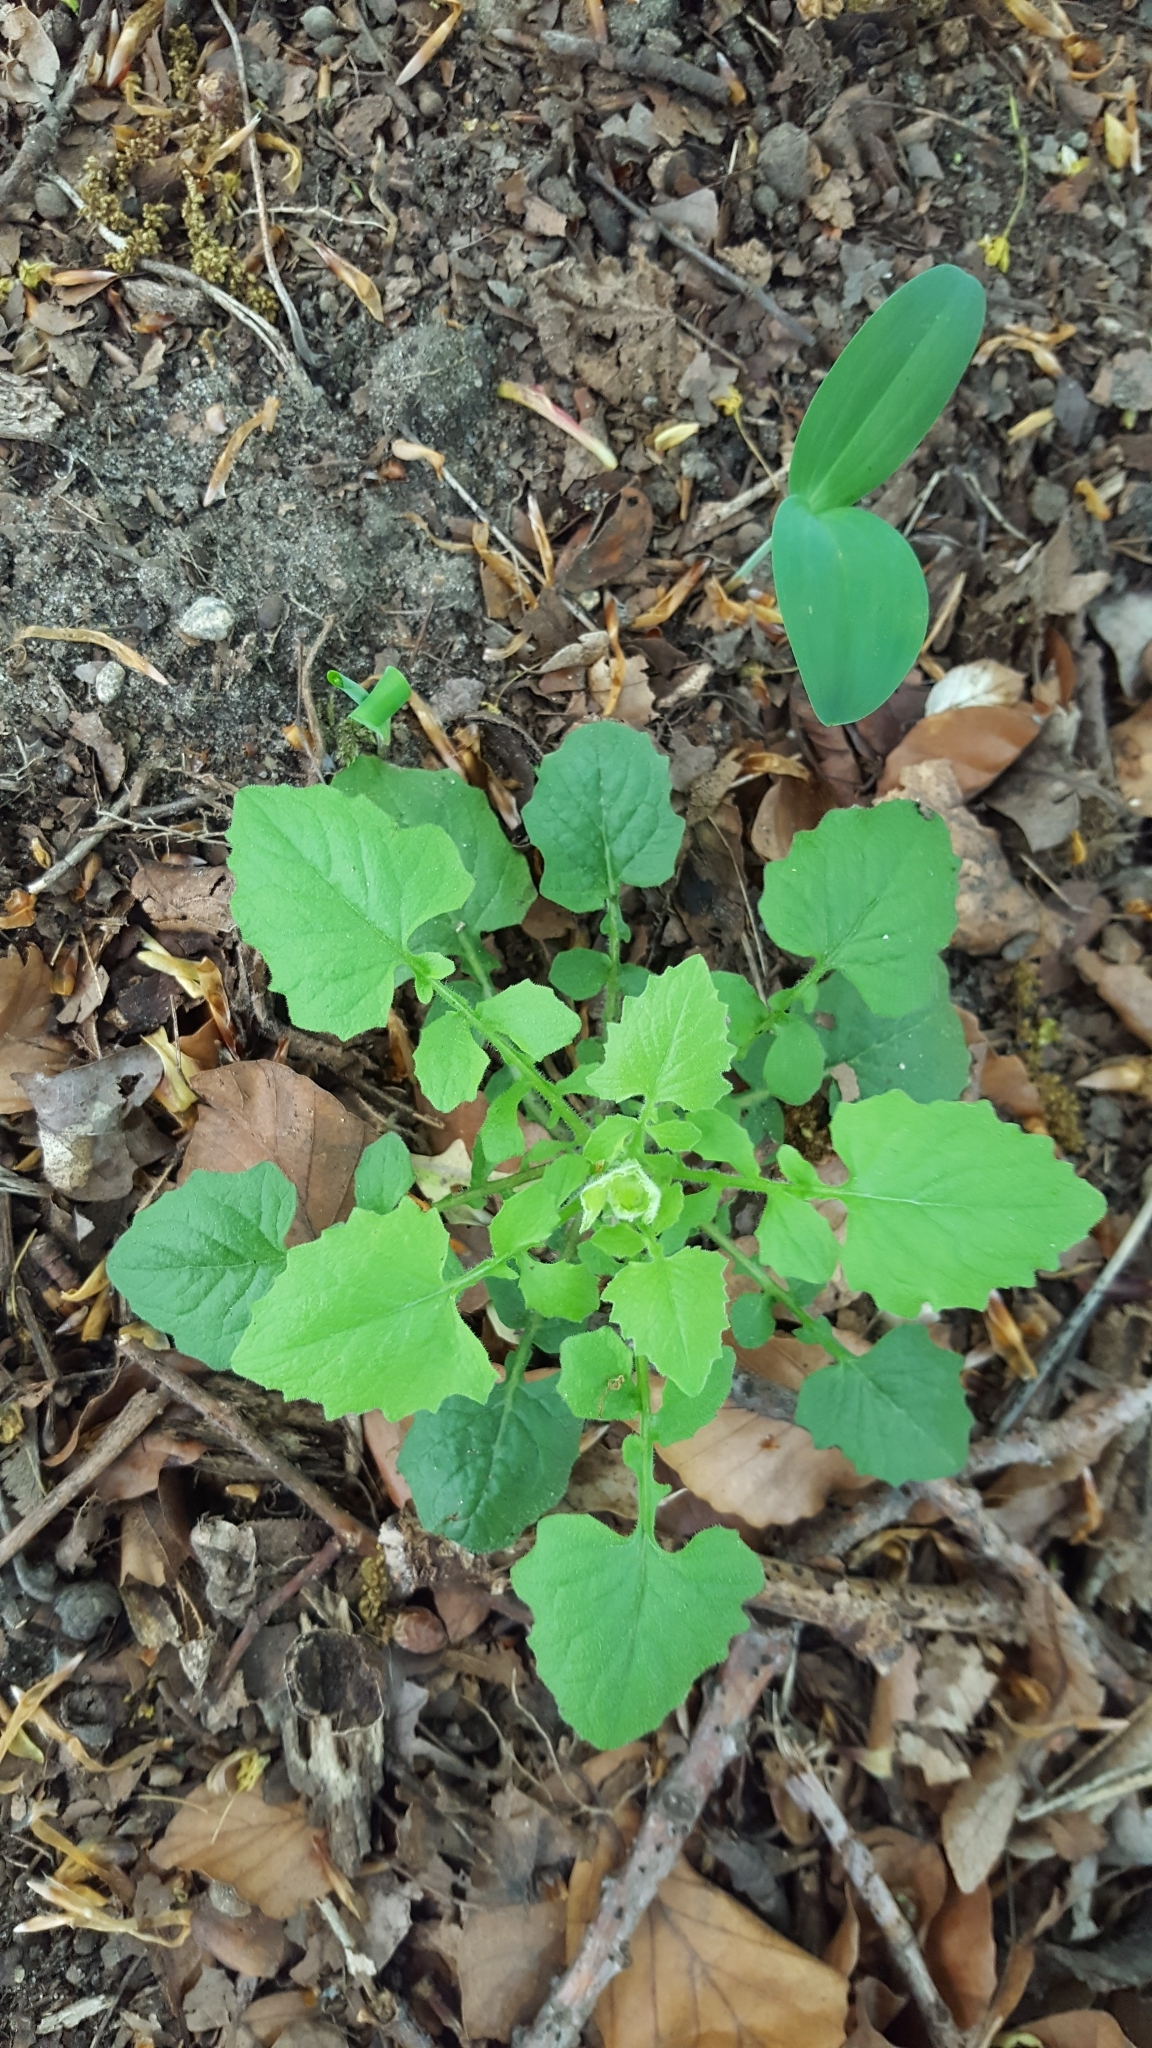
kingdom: Plantae
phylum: Tracheophyta
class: Magnoliopsida
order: Asterales
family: Asteraceae
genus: Lapsana
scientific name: Lapsana communis
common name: Nipplewort
